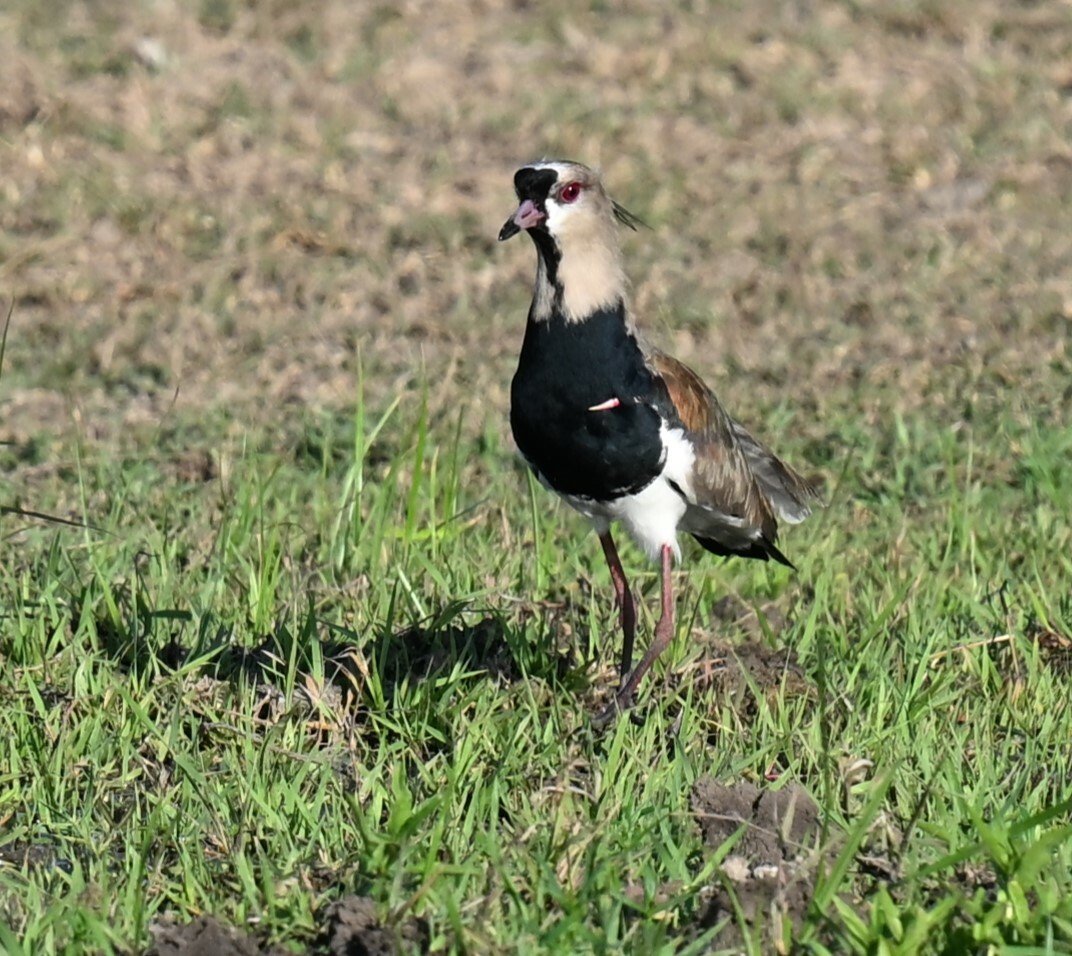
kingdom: Animalia
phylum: Chordata
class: Aves
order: Charadriiformes
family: Charadriidae
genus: Vanellus
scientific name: Vanellus chilensis
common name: Southern lapwing
